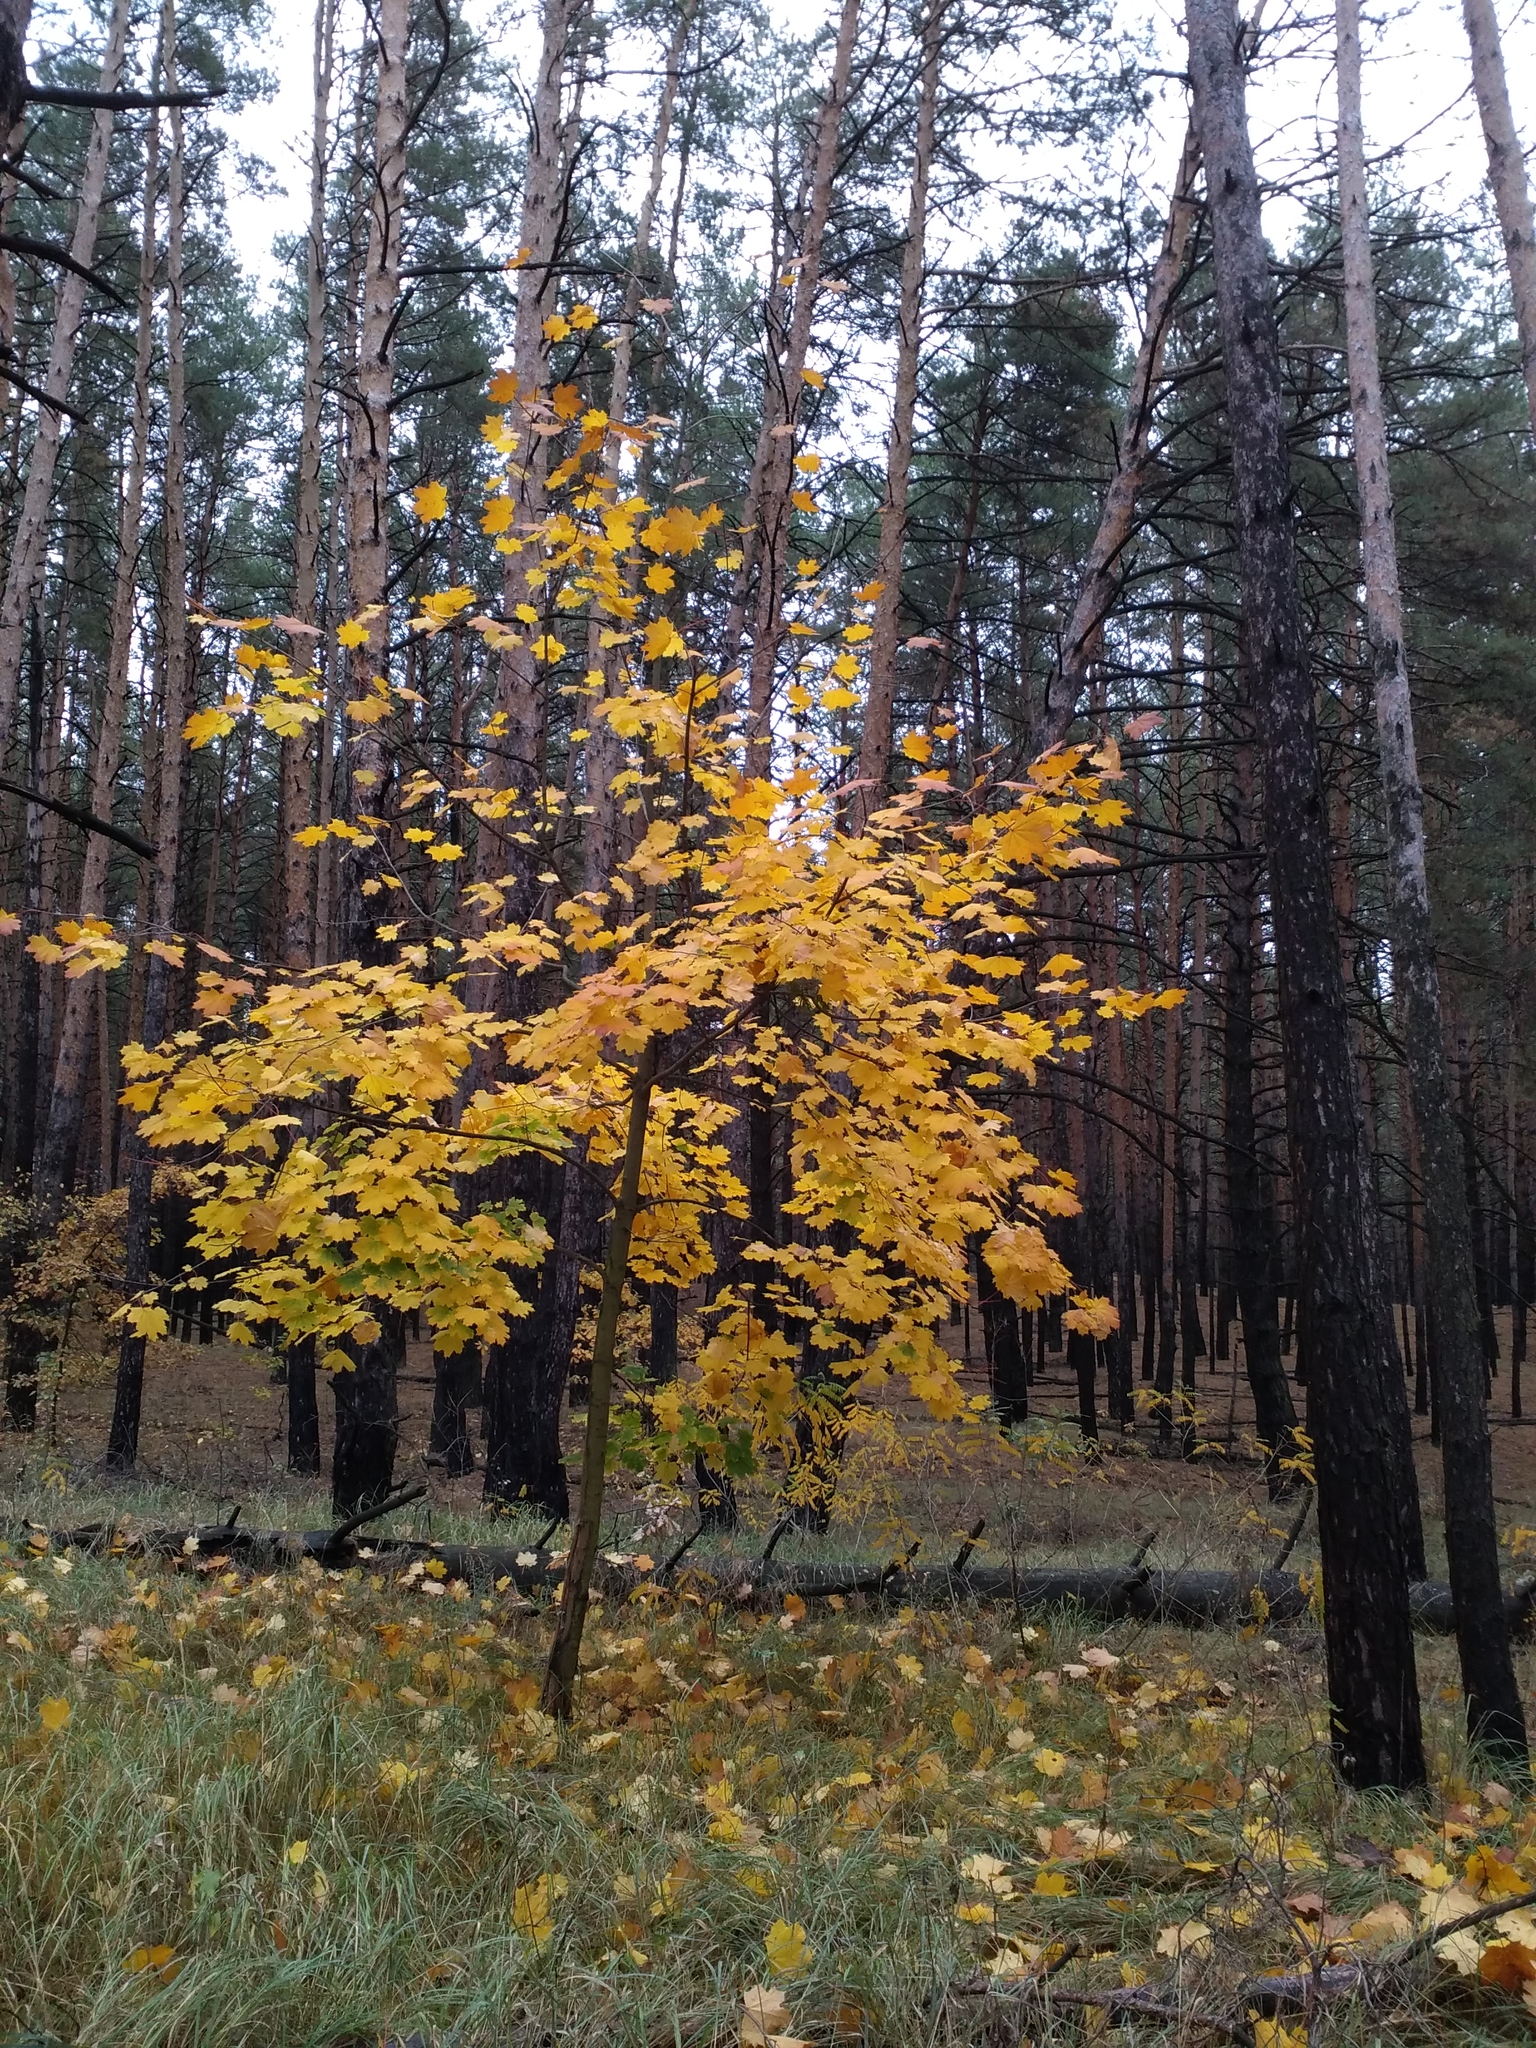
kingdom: Plantae
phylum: Tracheophyta
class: Magnoliopsida
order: Sapindales
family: Sapindaceae
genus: Acer
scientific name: Acer platanoides
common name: Norway maple
